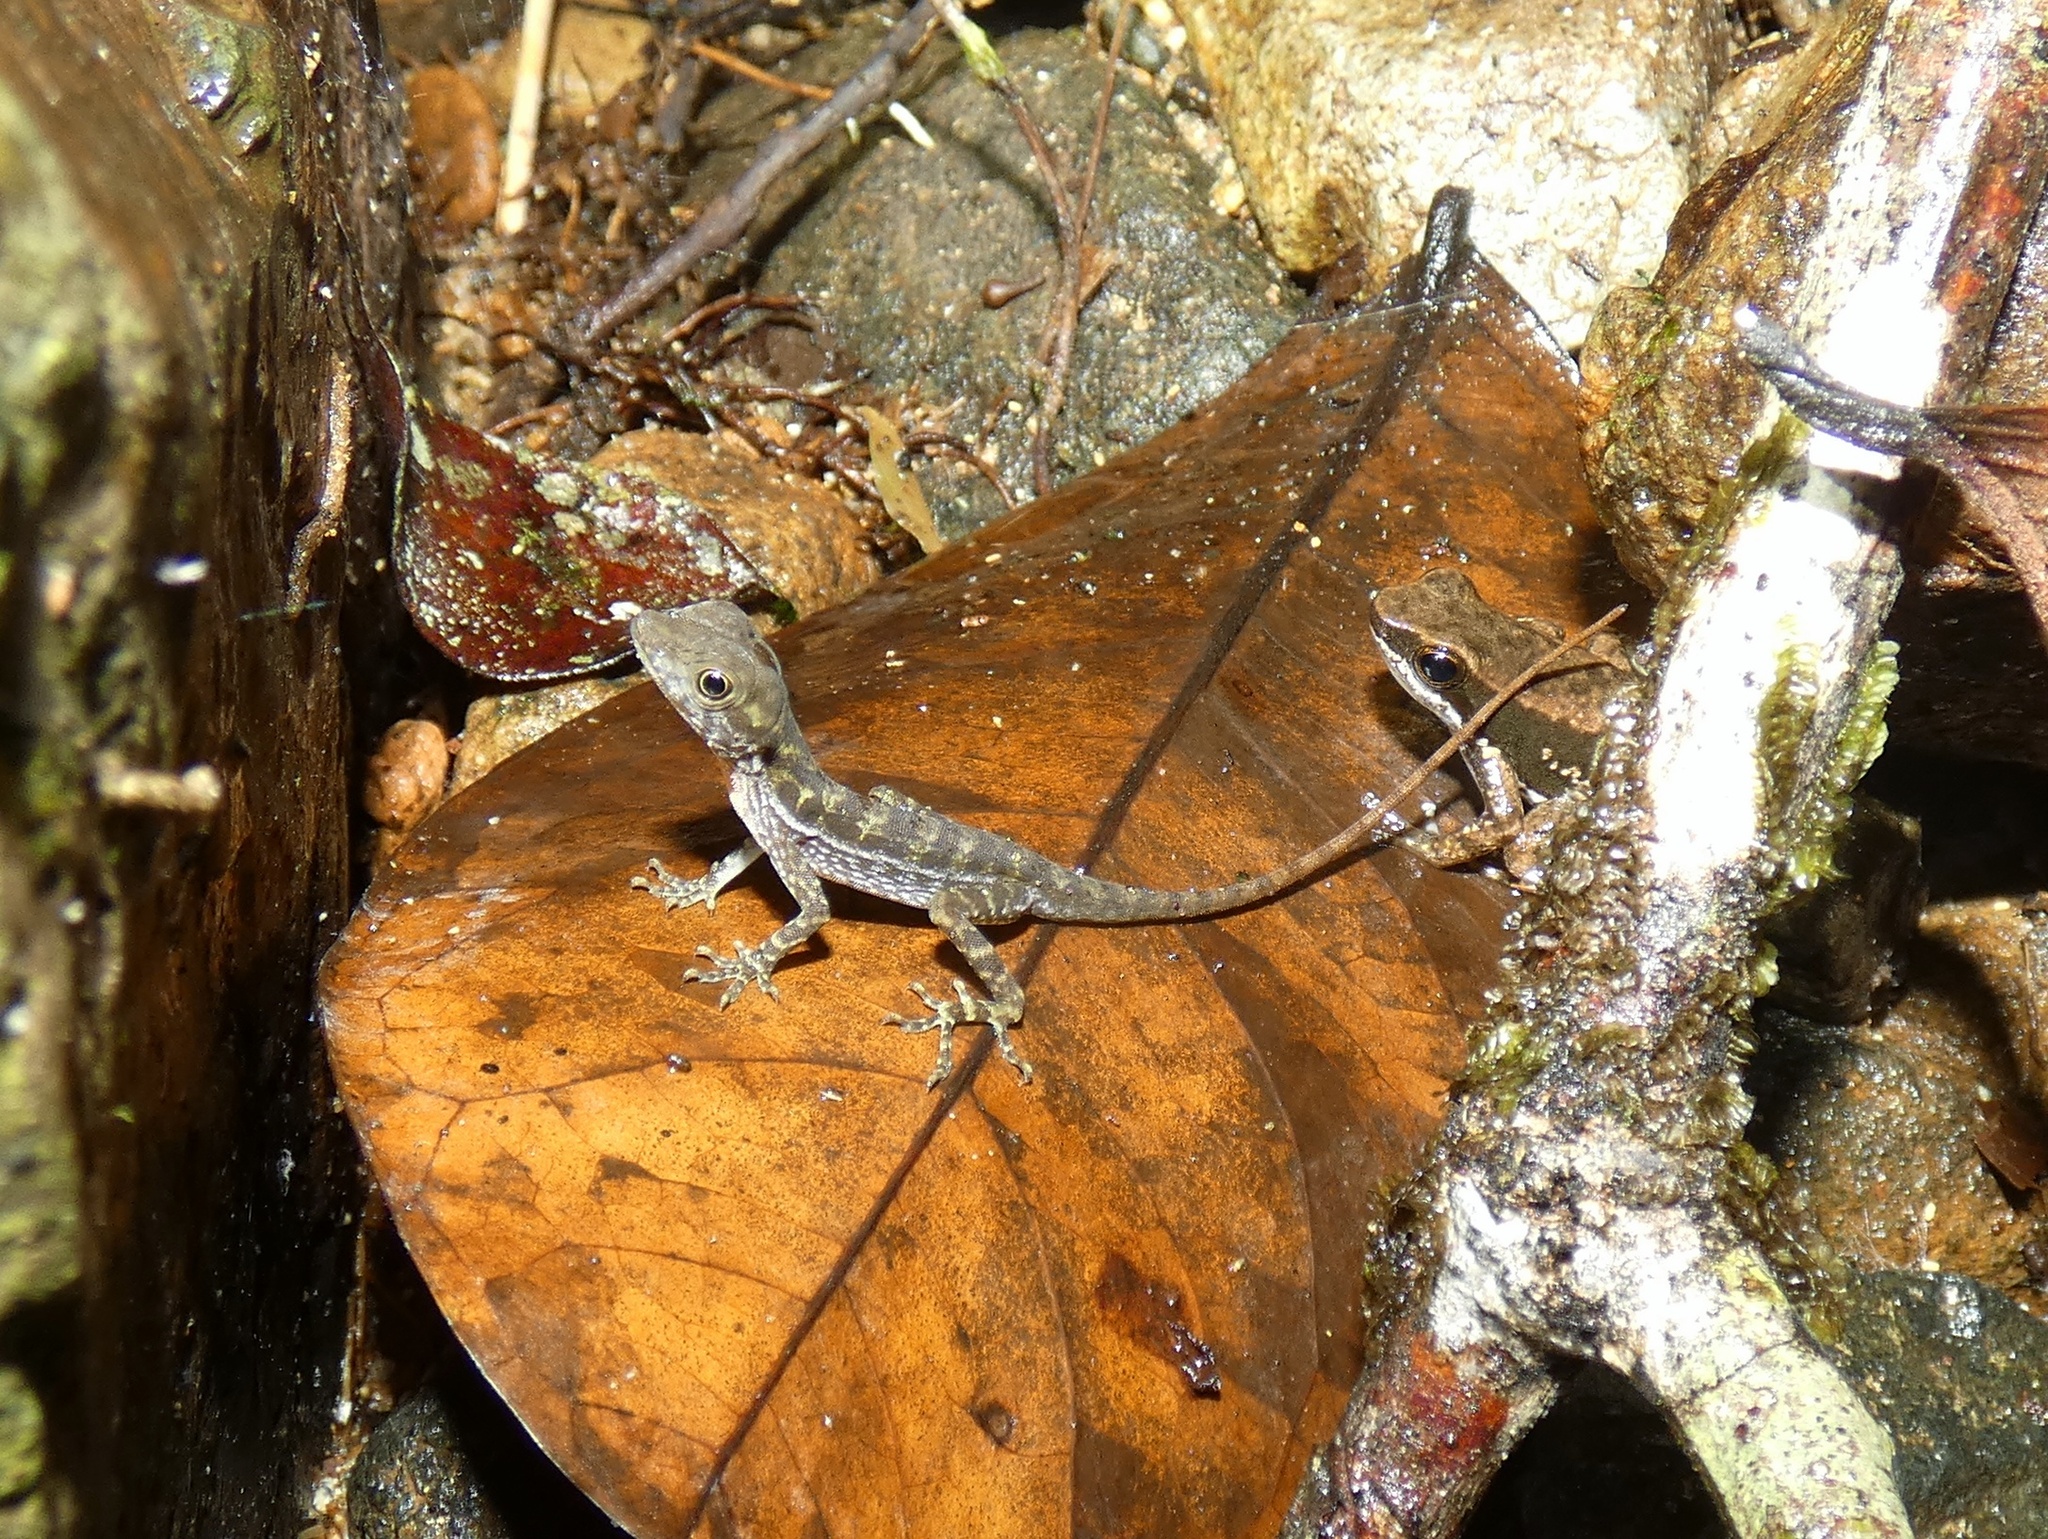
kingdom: Animalia
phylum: Chordata
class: Squamata
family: Dactyloidae
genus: Anolis
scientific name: Anolis poecilopus
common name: Dappled anole
